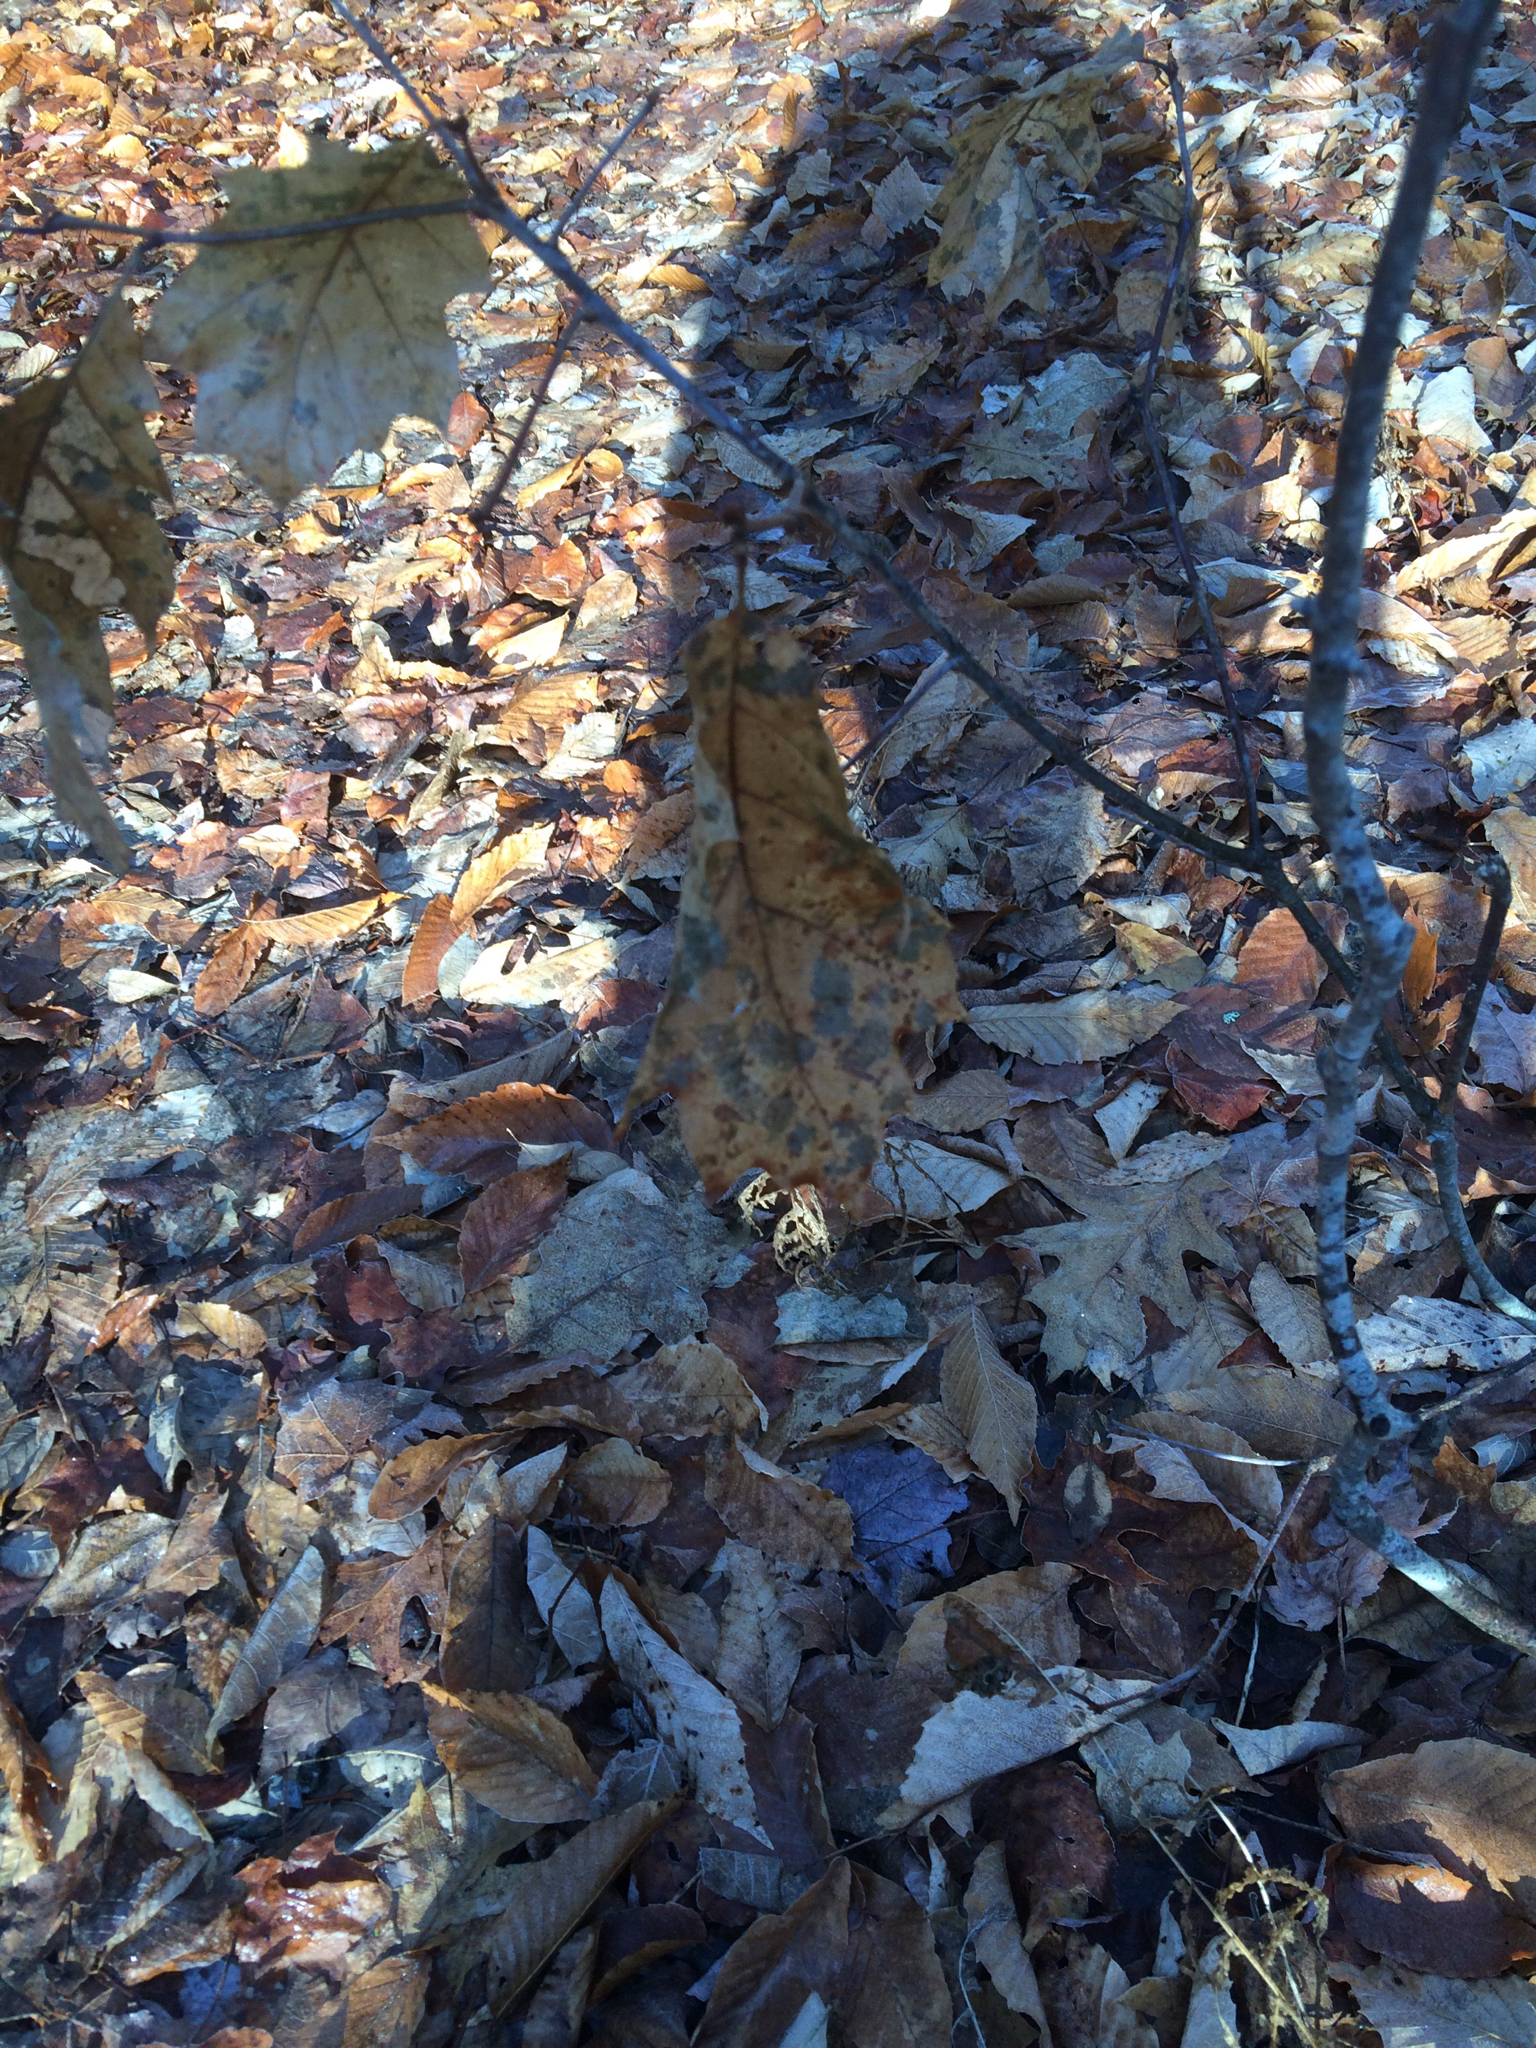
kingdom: Plantae
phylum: Tracheophyta
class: Magnoliopsida
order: Fagales
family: Fagaceae
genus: Quercus
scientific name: Quercus rubra
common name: Red oak
